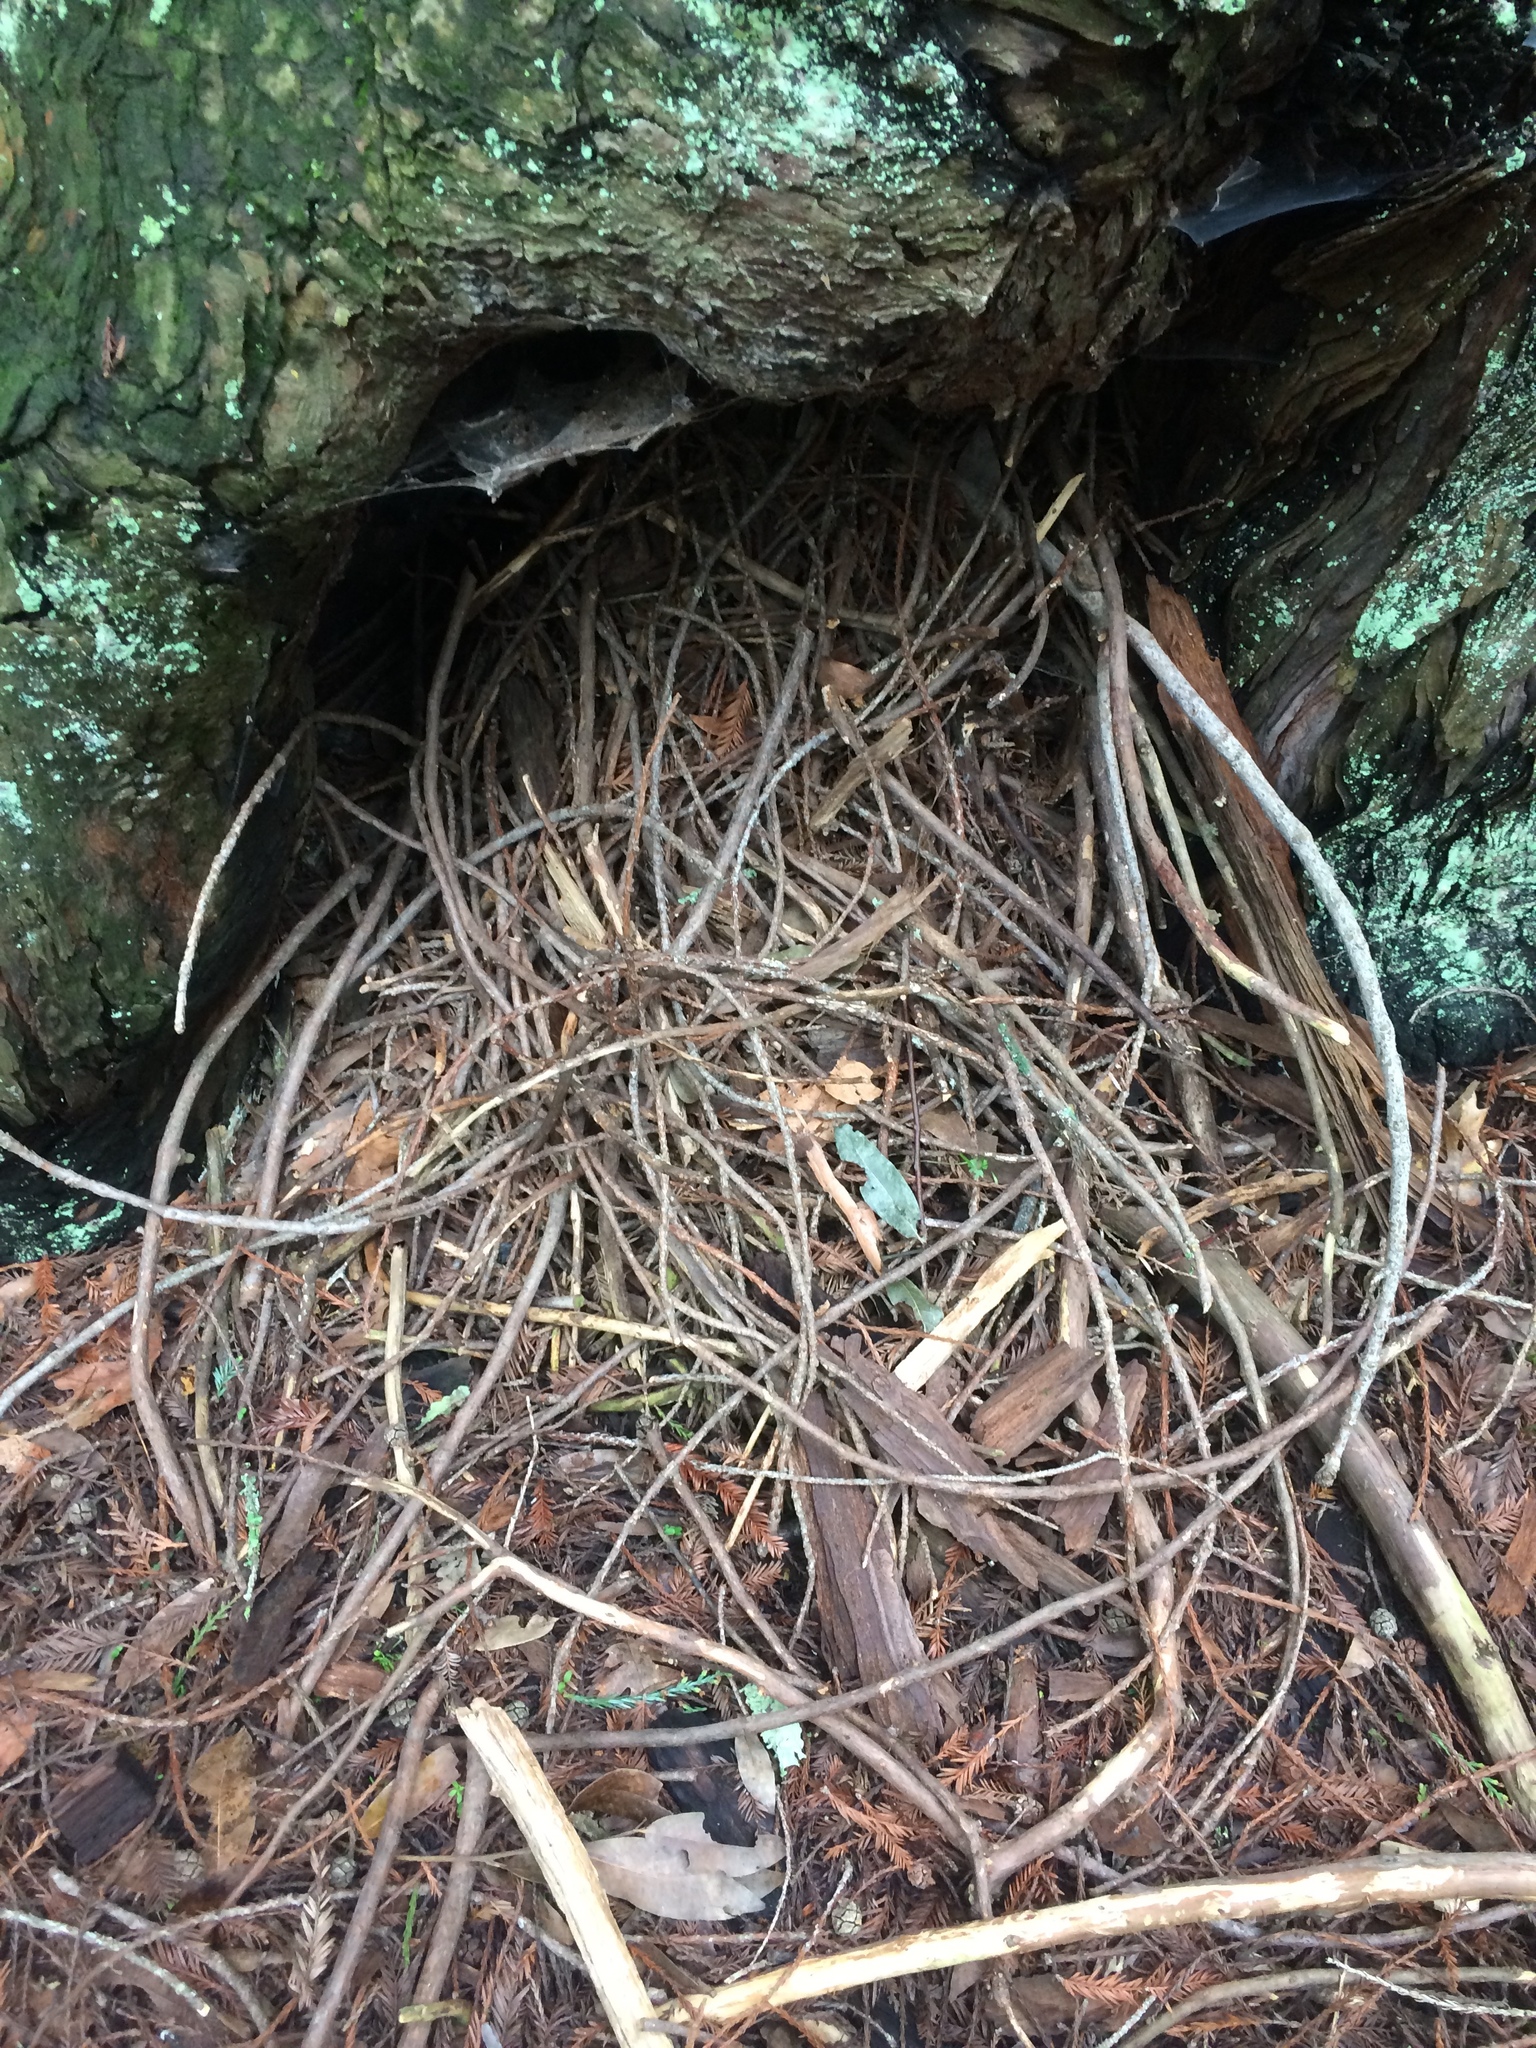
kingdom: Animalia
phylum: Chordata
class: Mammalia
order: Rodentia
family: Cricetidae
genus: Neotoma
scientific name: Neotoma fuscipes
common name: Dusky-footed woodrat
